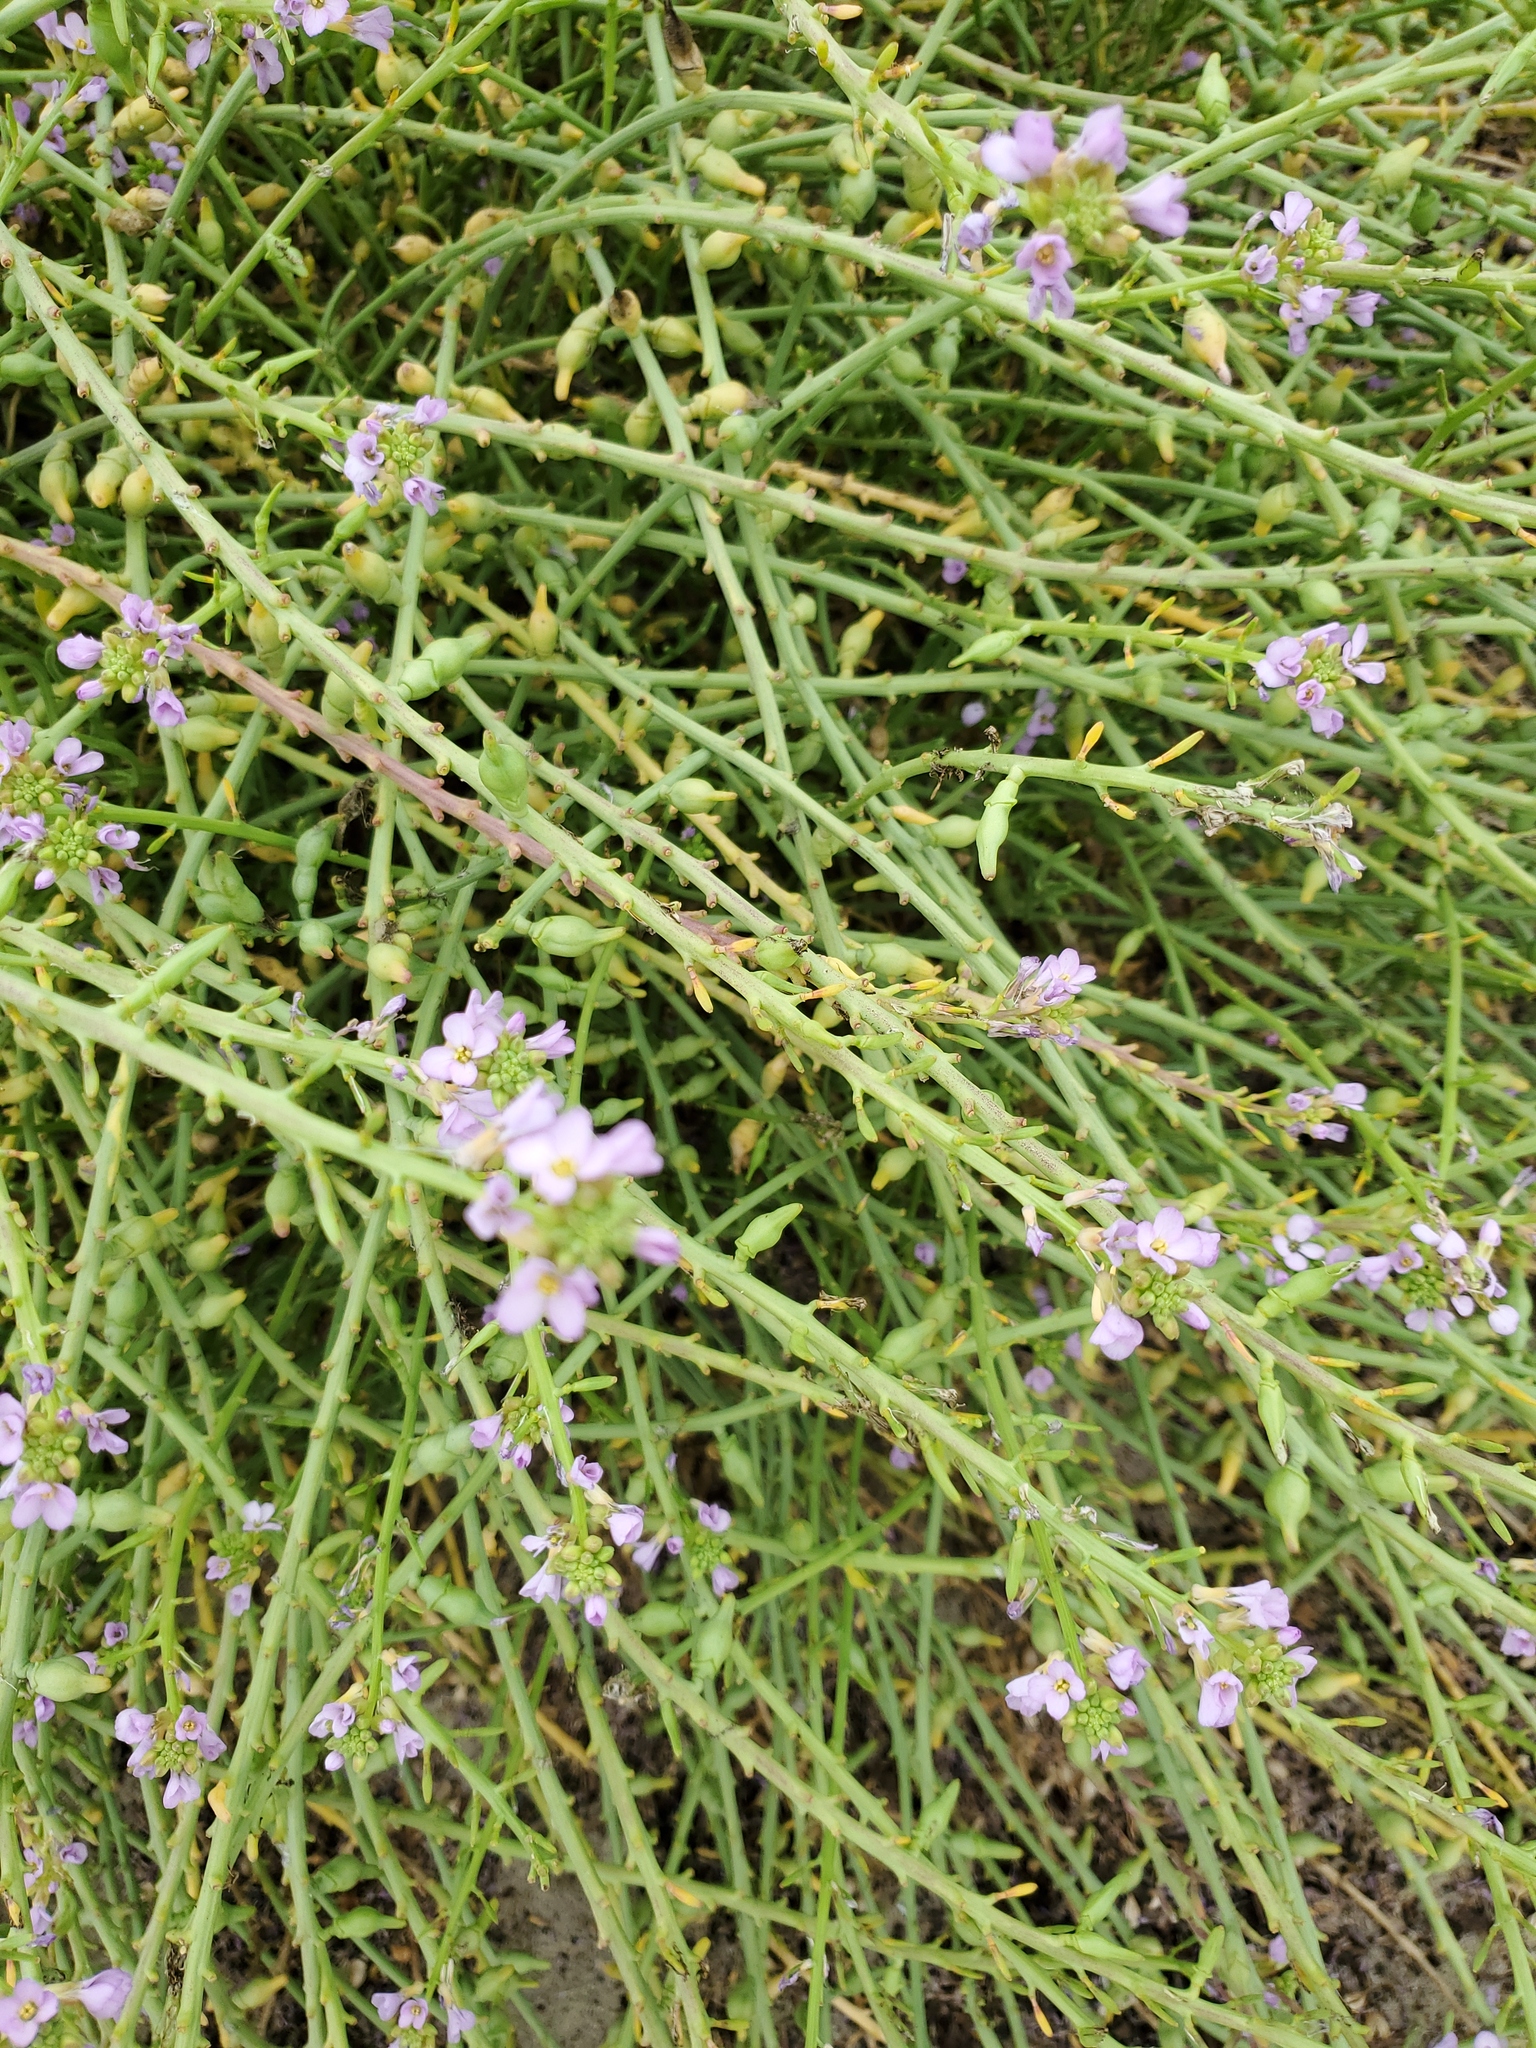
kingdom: Plantae
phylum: Tracheophyta
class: Magnoliopsida
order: Brassicales
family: Brassicaceae
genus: Cakile
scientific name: Cakile maritima
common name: Sea rocket
